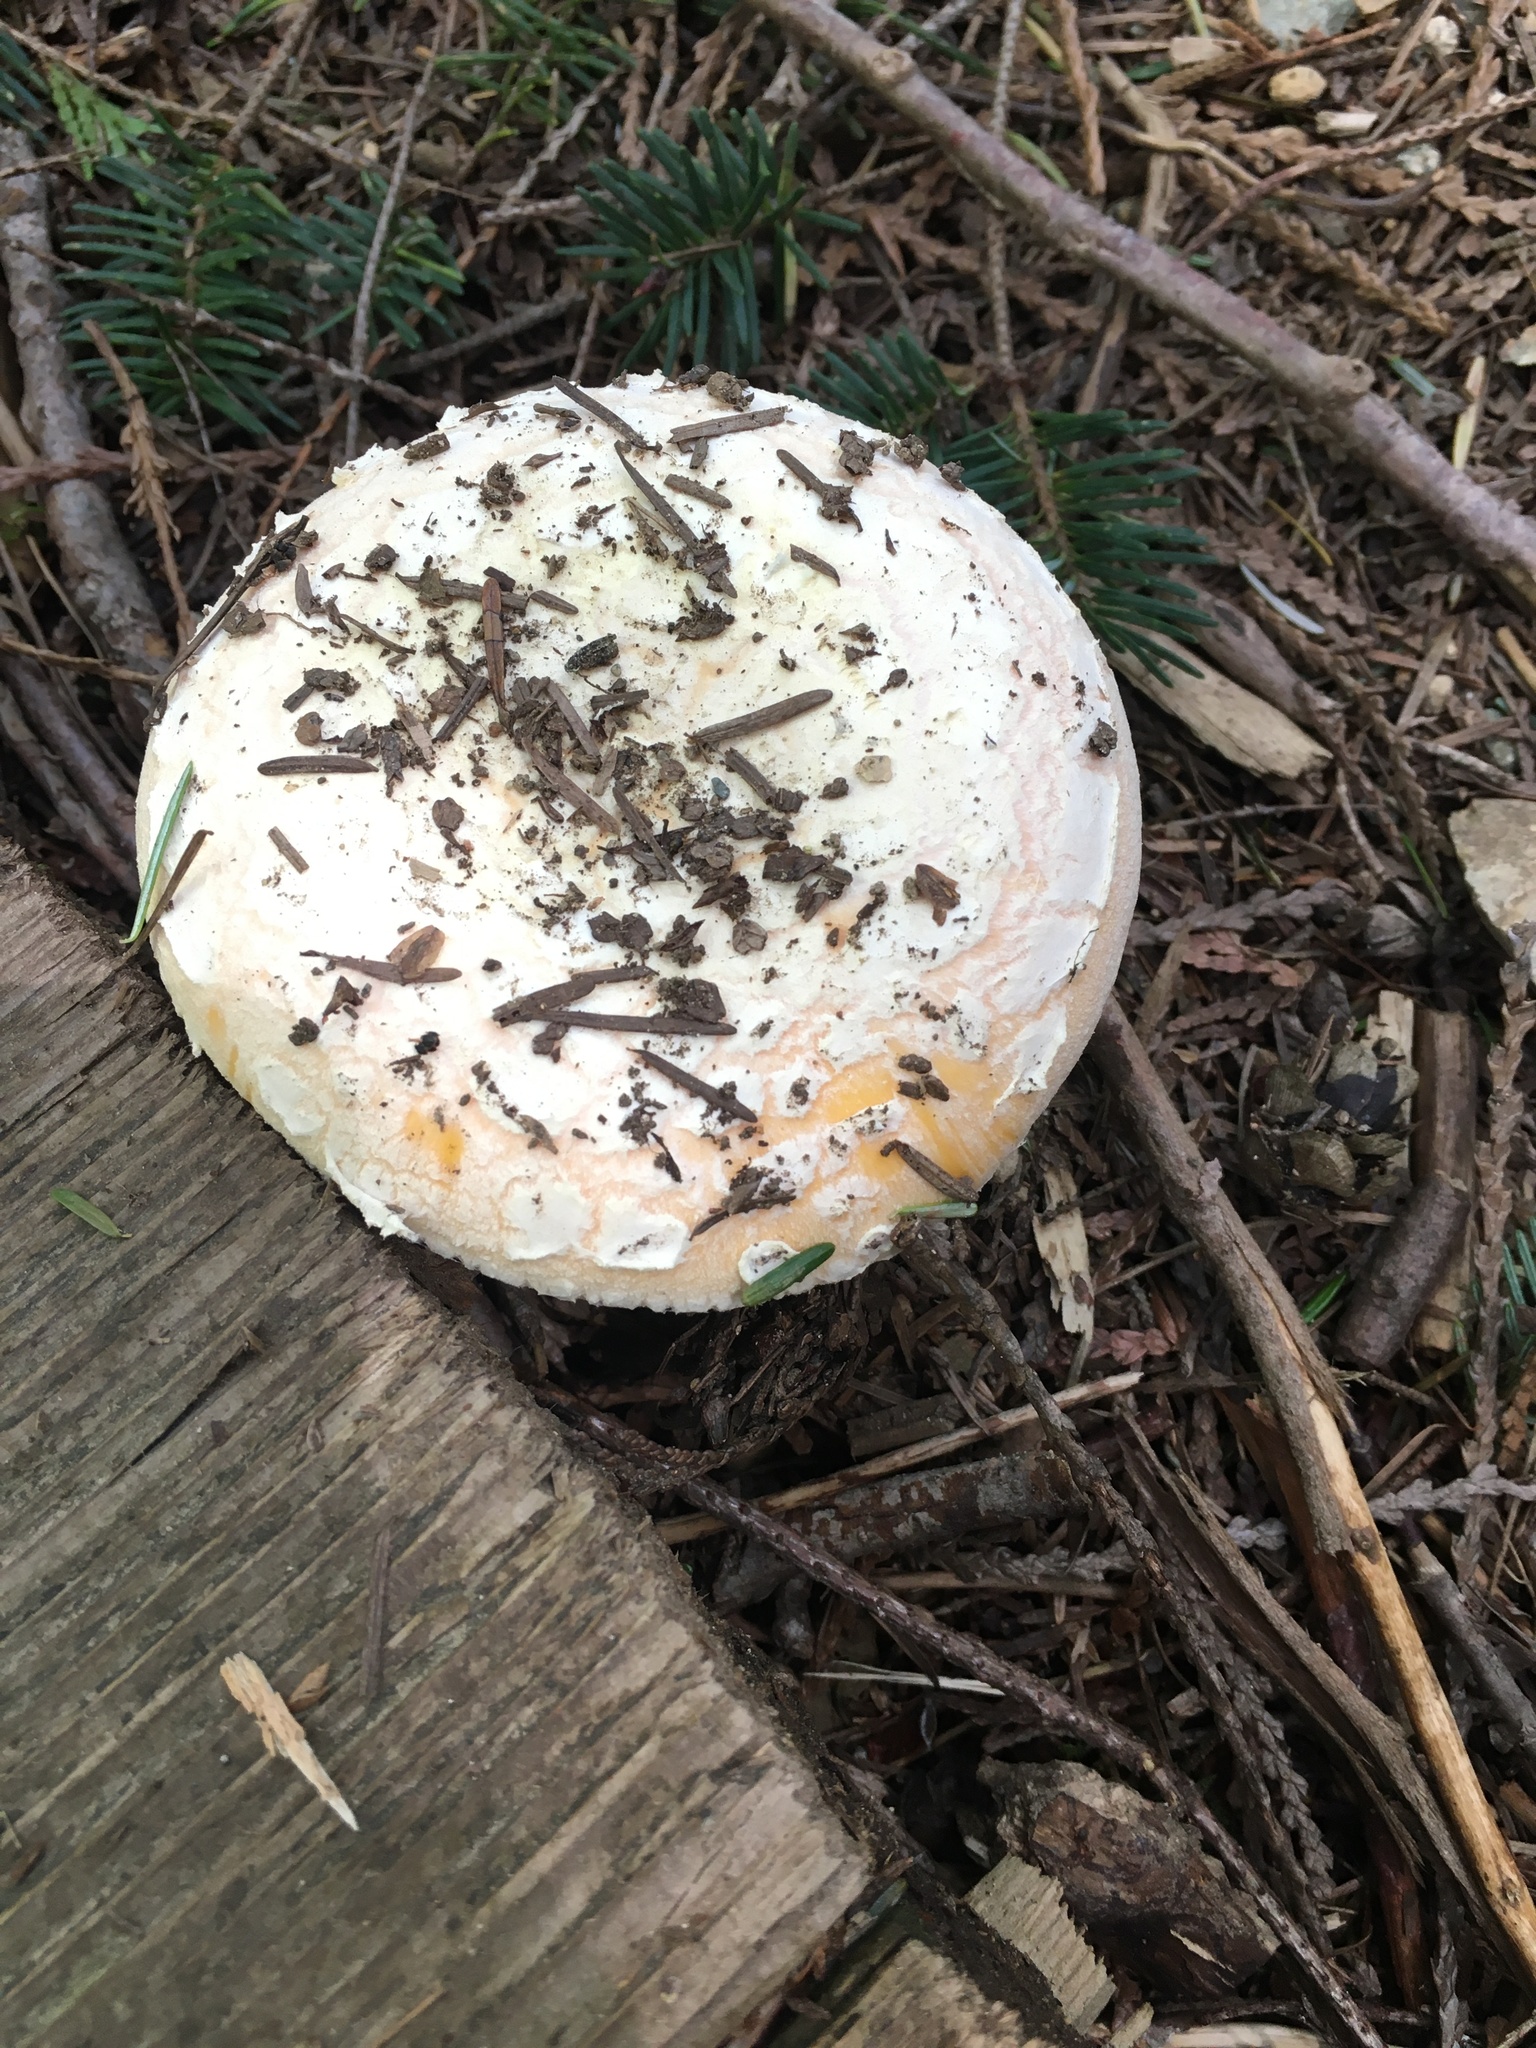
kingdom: Fungi
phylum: Basidiomycota
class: Agaricomycetes
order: Agaricales
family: Amanitaceae
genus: Amanita
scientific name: Amanita aprica
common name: Sunshine amanita
